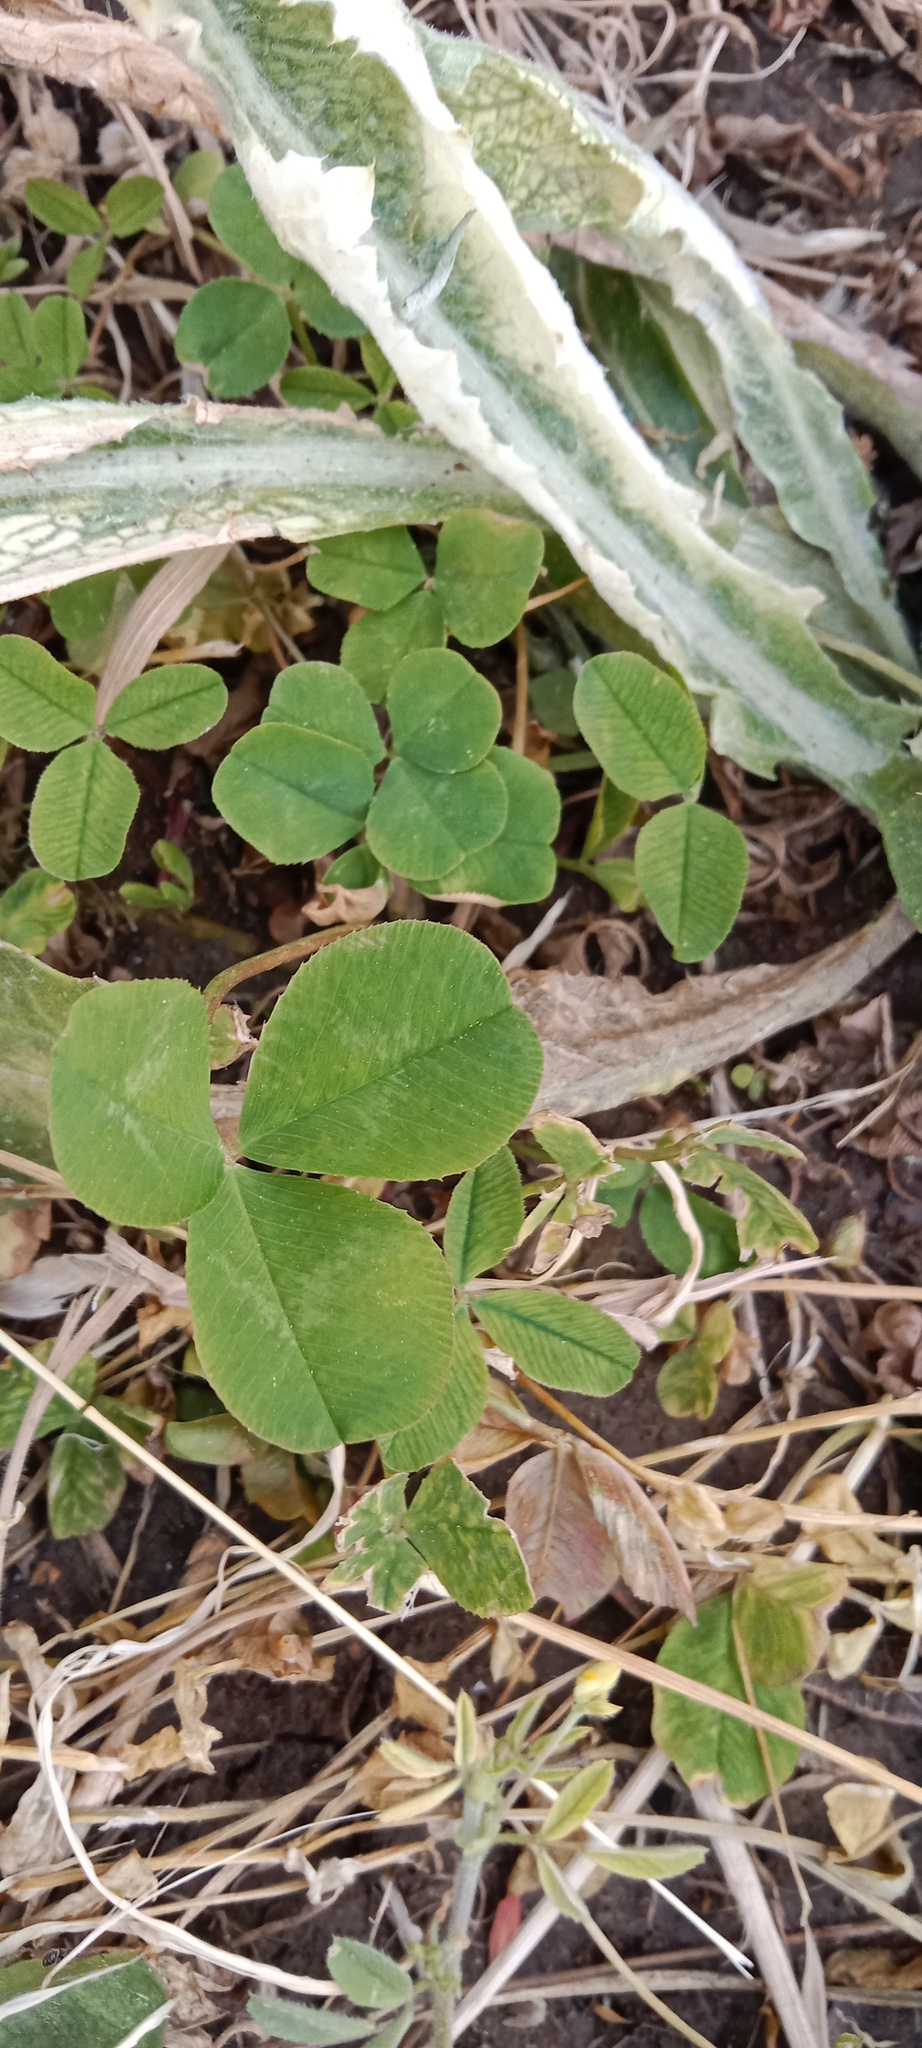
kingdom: Plantae
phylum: Tracheophyta
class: Magnoliopsida
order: Fabales
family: Fabaceae
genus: Trifolium
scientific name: Trifolium repens
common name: White clover
